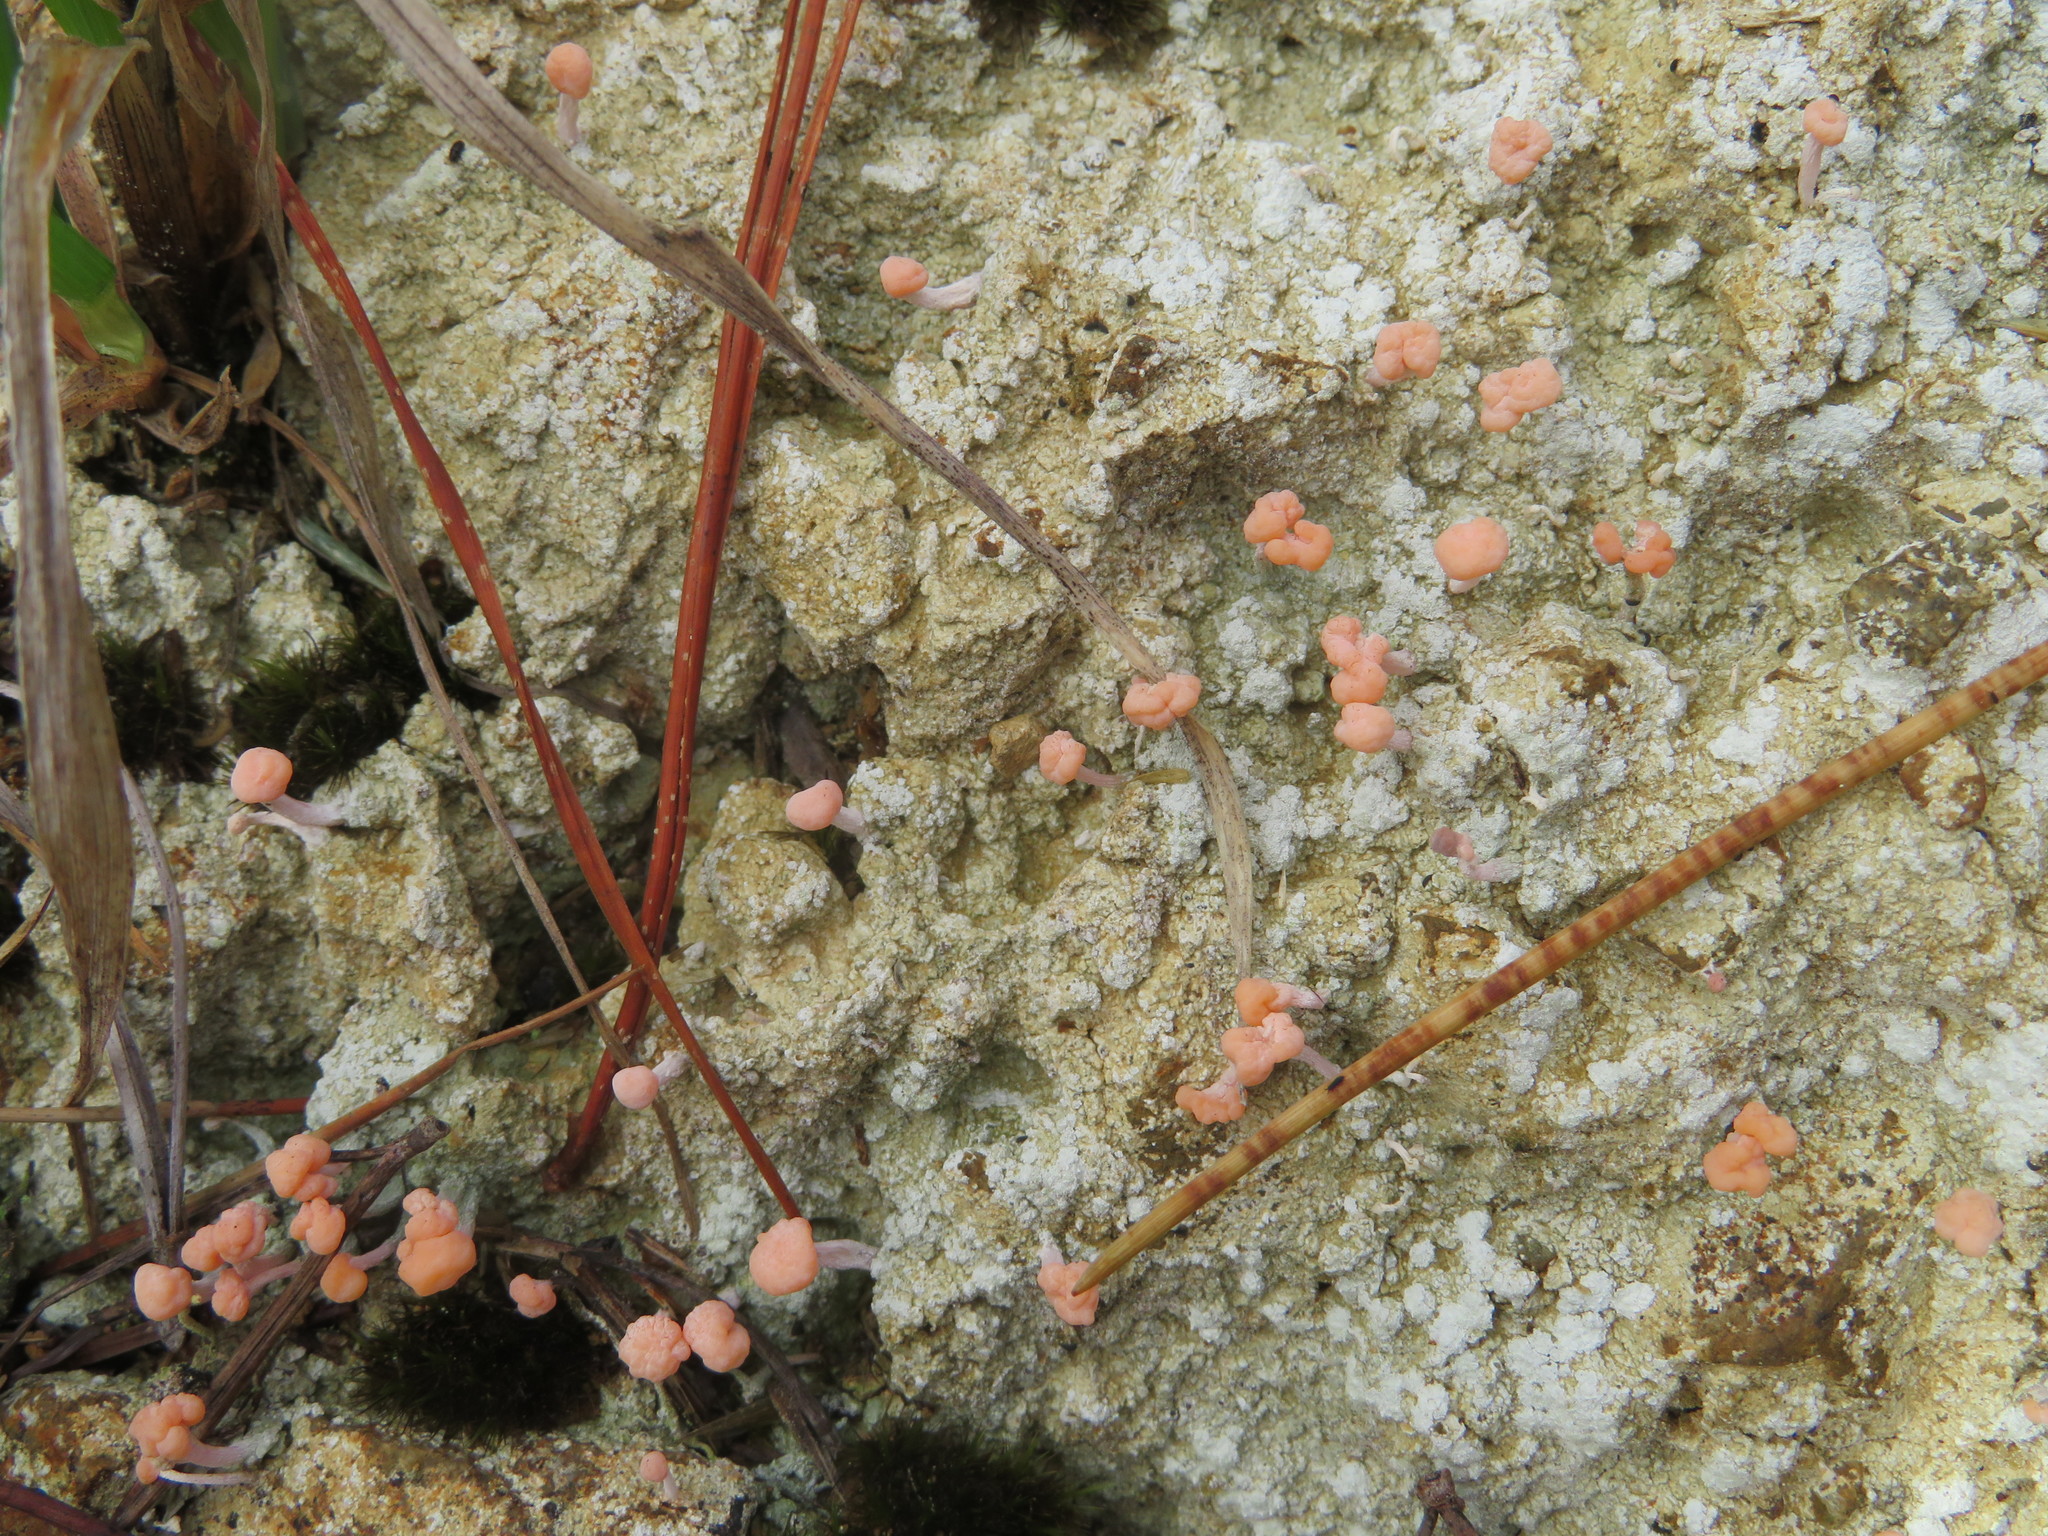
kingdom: Fungi
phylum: Ascomycota
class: Lecanoromycetes
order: Pertusariales
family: Icmadophilaceae
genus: Dibaeis
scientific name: Dibaeis arcuata
